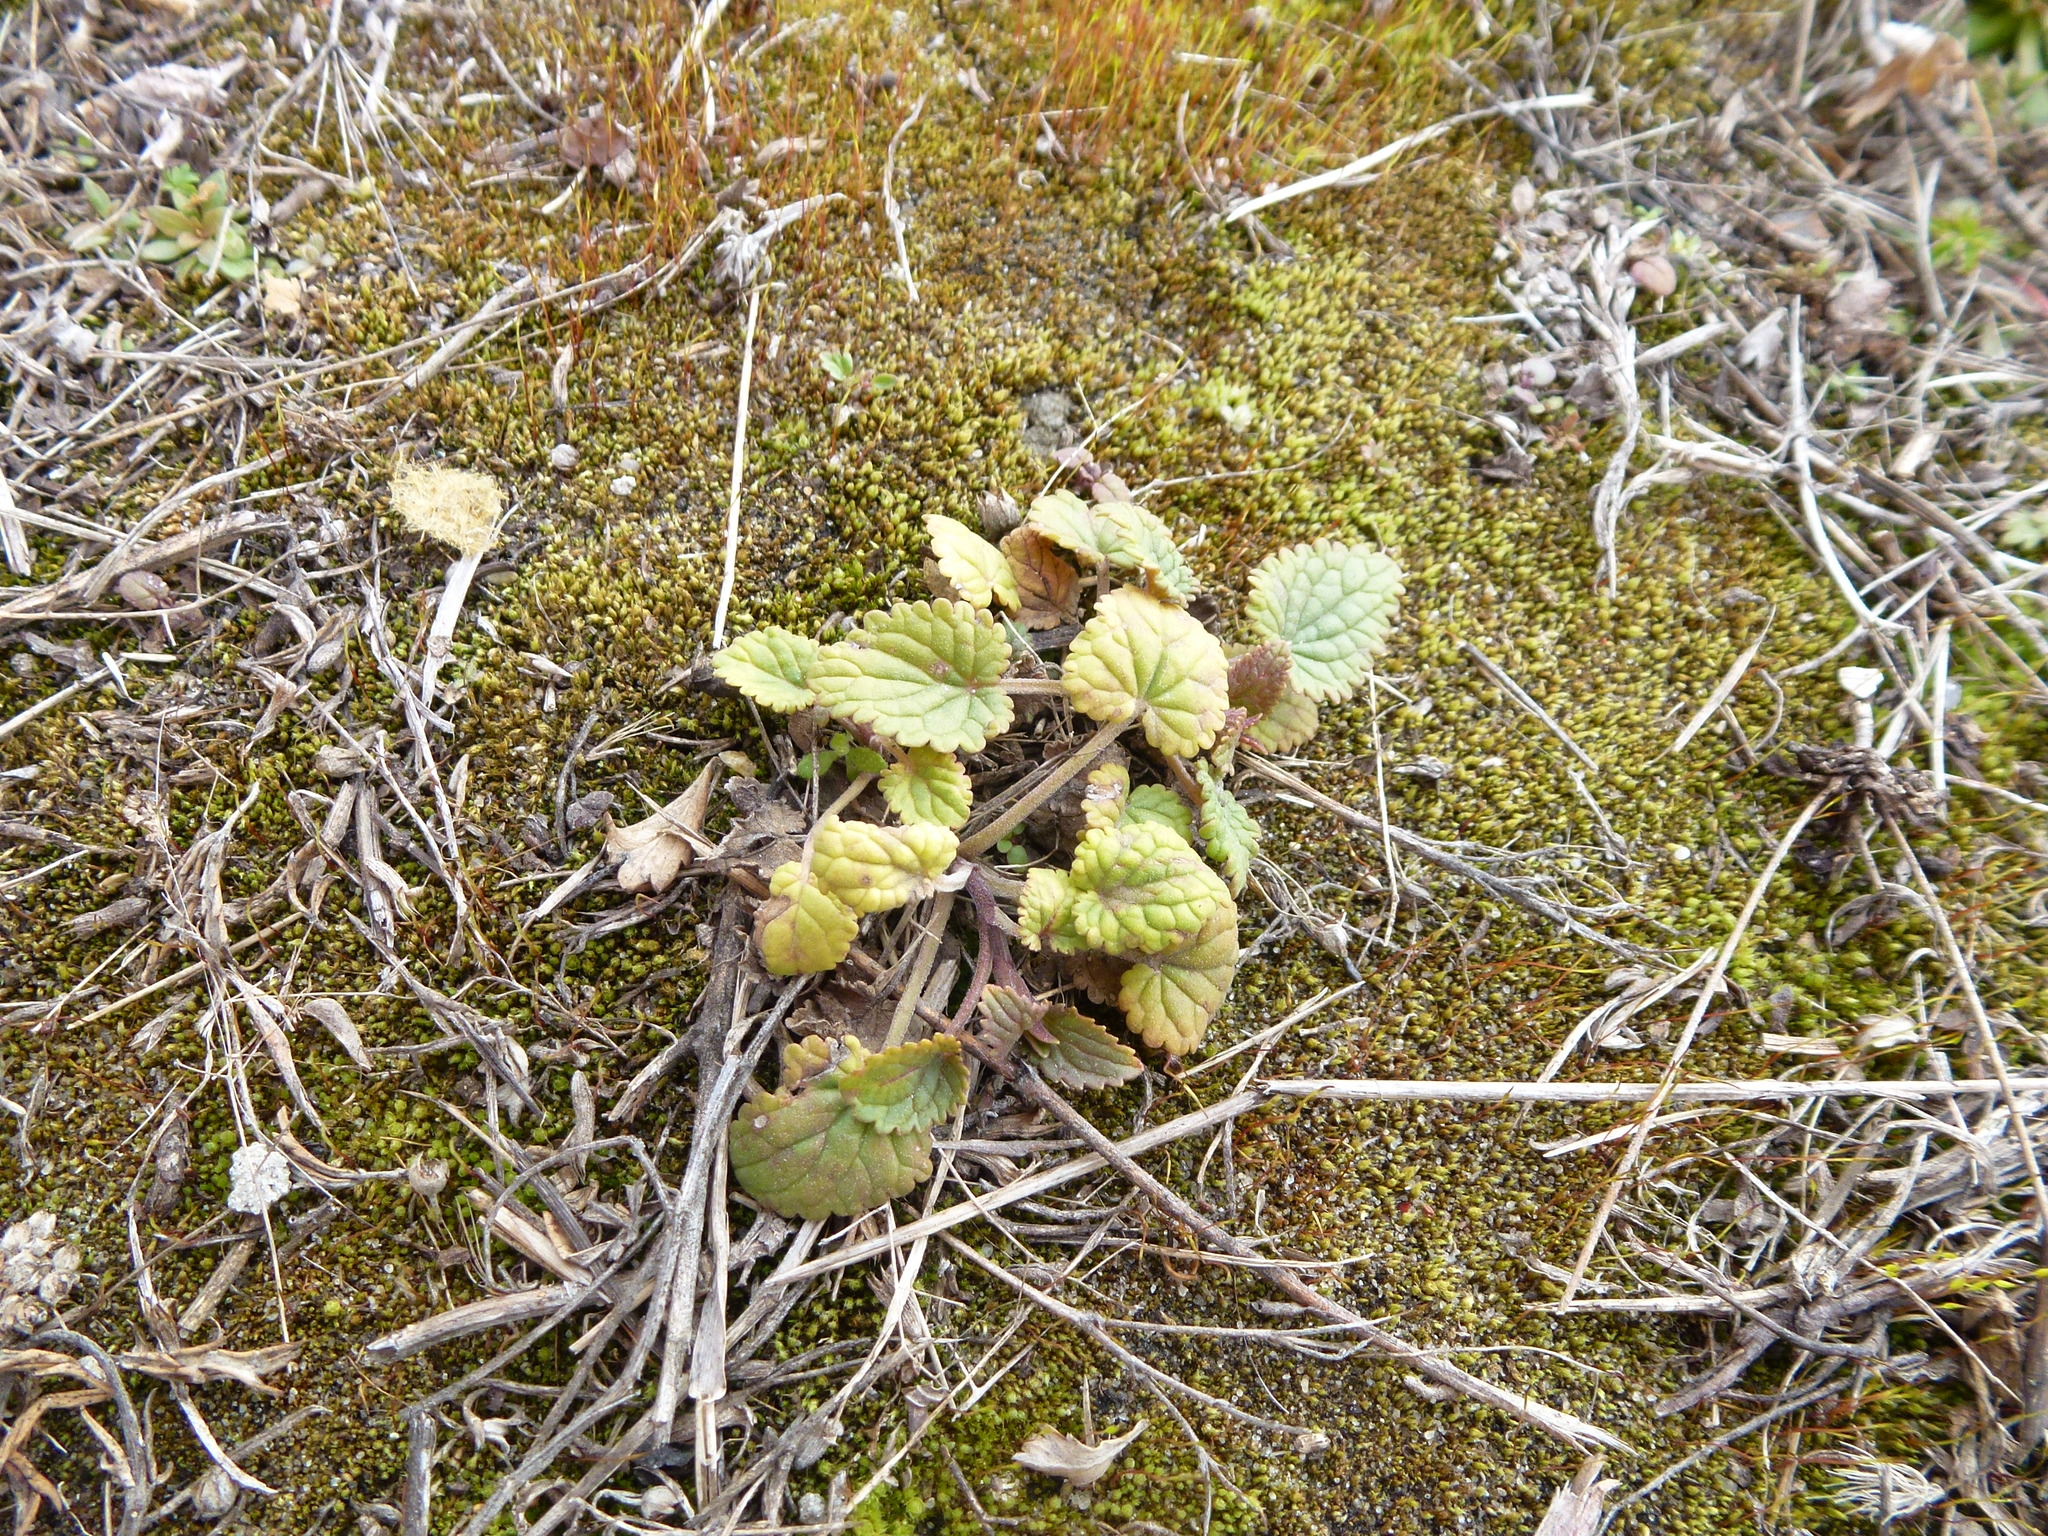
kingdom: Plantae
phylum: Tracheophyta
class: Magnoliopsida
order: Lamiales
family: Lamiaceae
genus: Dracocephalum
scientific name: Dracocephalum thymiflorum
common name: Thymeleaf dragonhead
